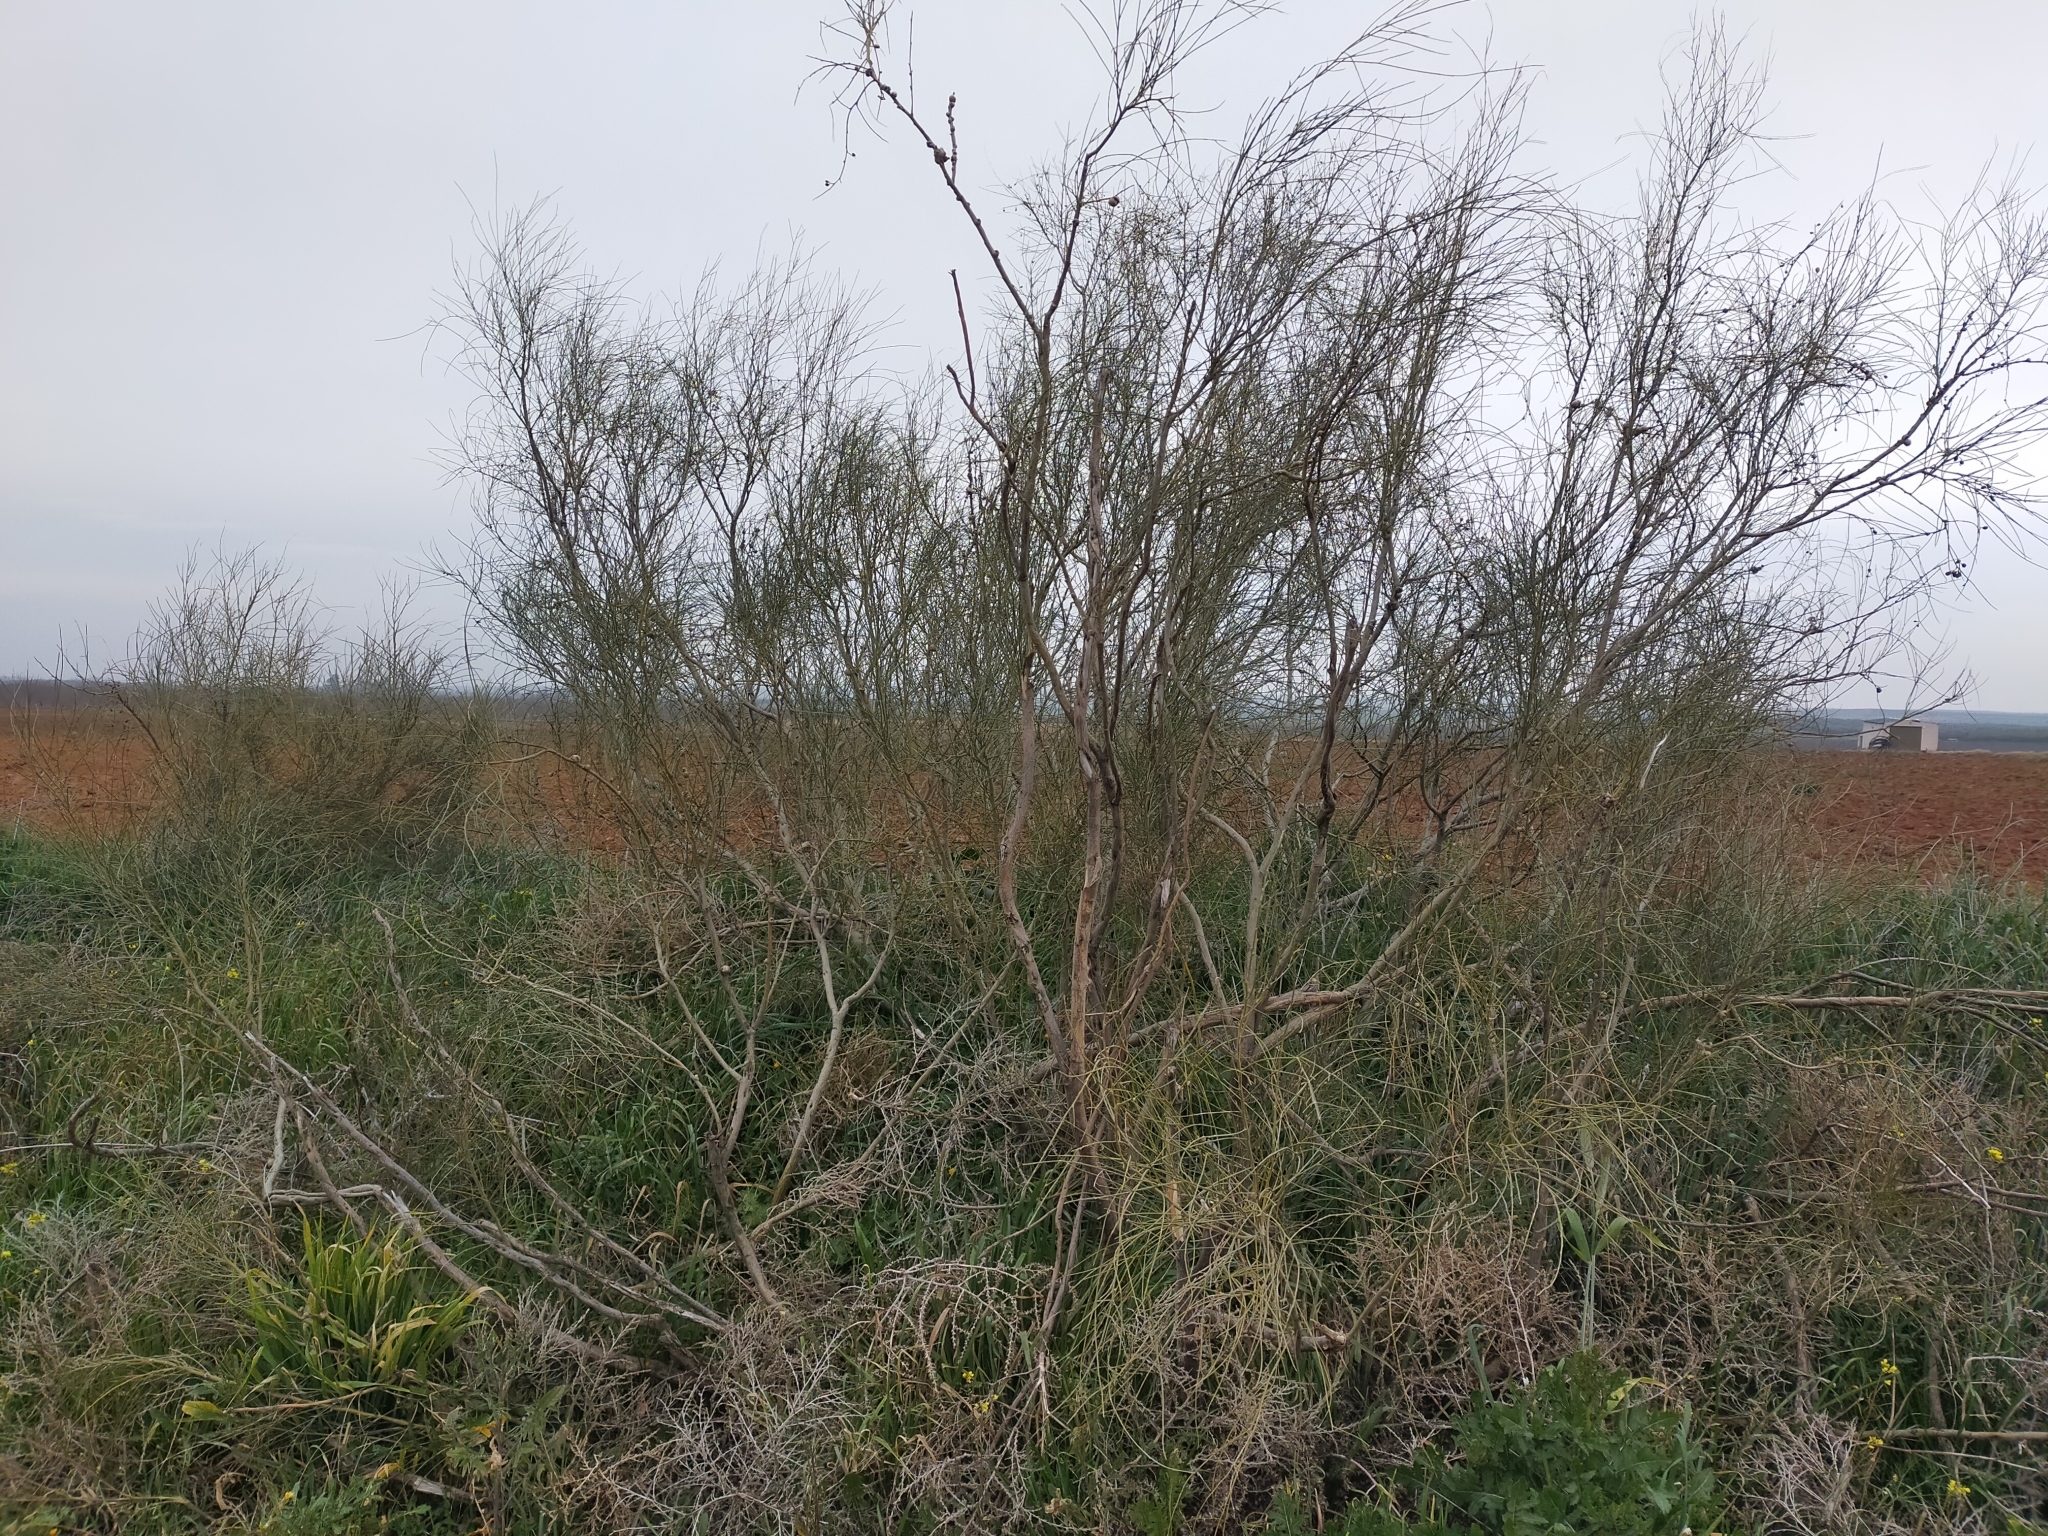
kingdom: Plantae
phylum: Tracheophyta
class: Magnoliopsida
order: Fabales
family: Fabaceae
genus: Retama
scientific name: Retama sphaerocarpa
